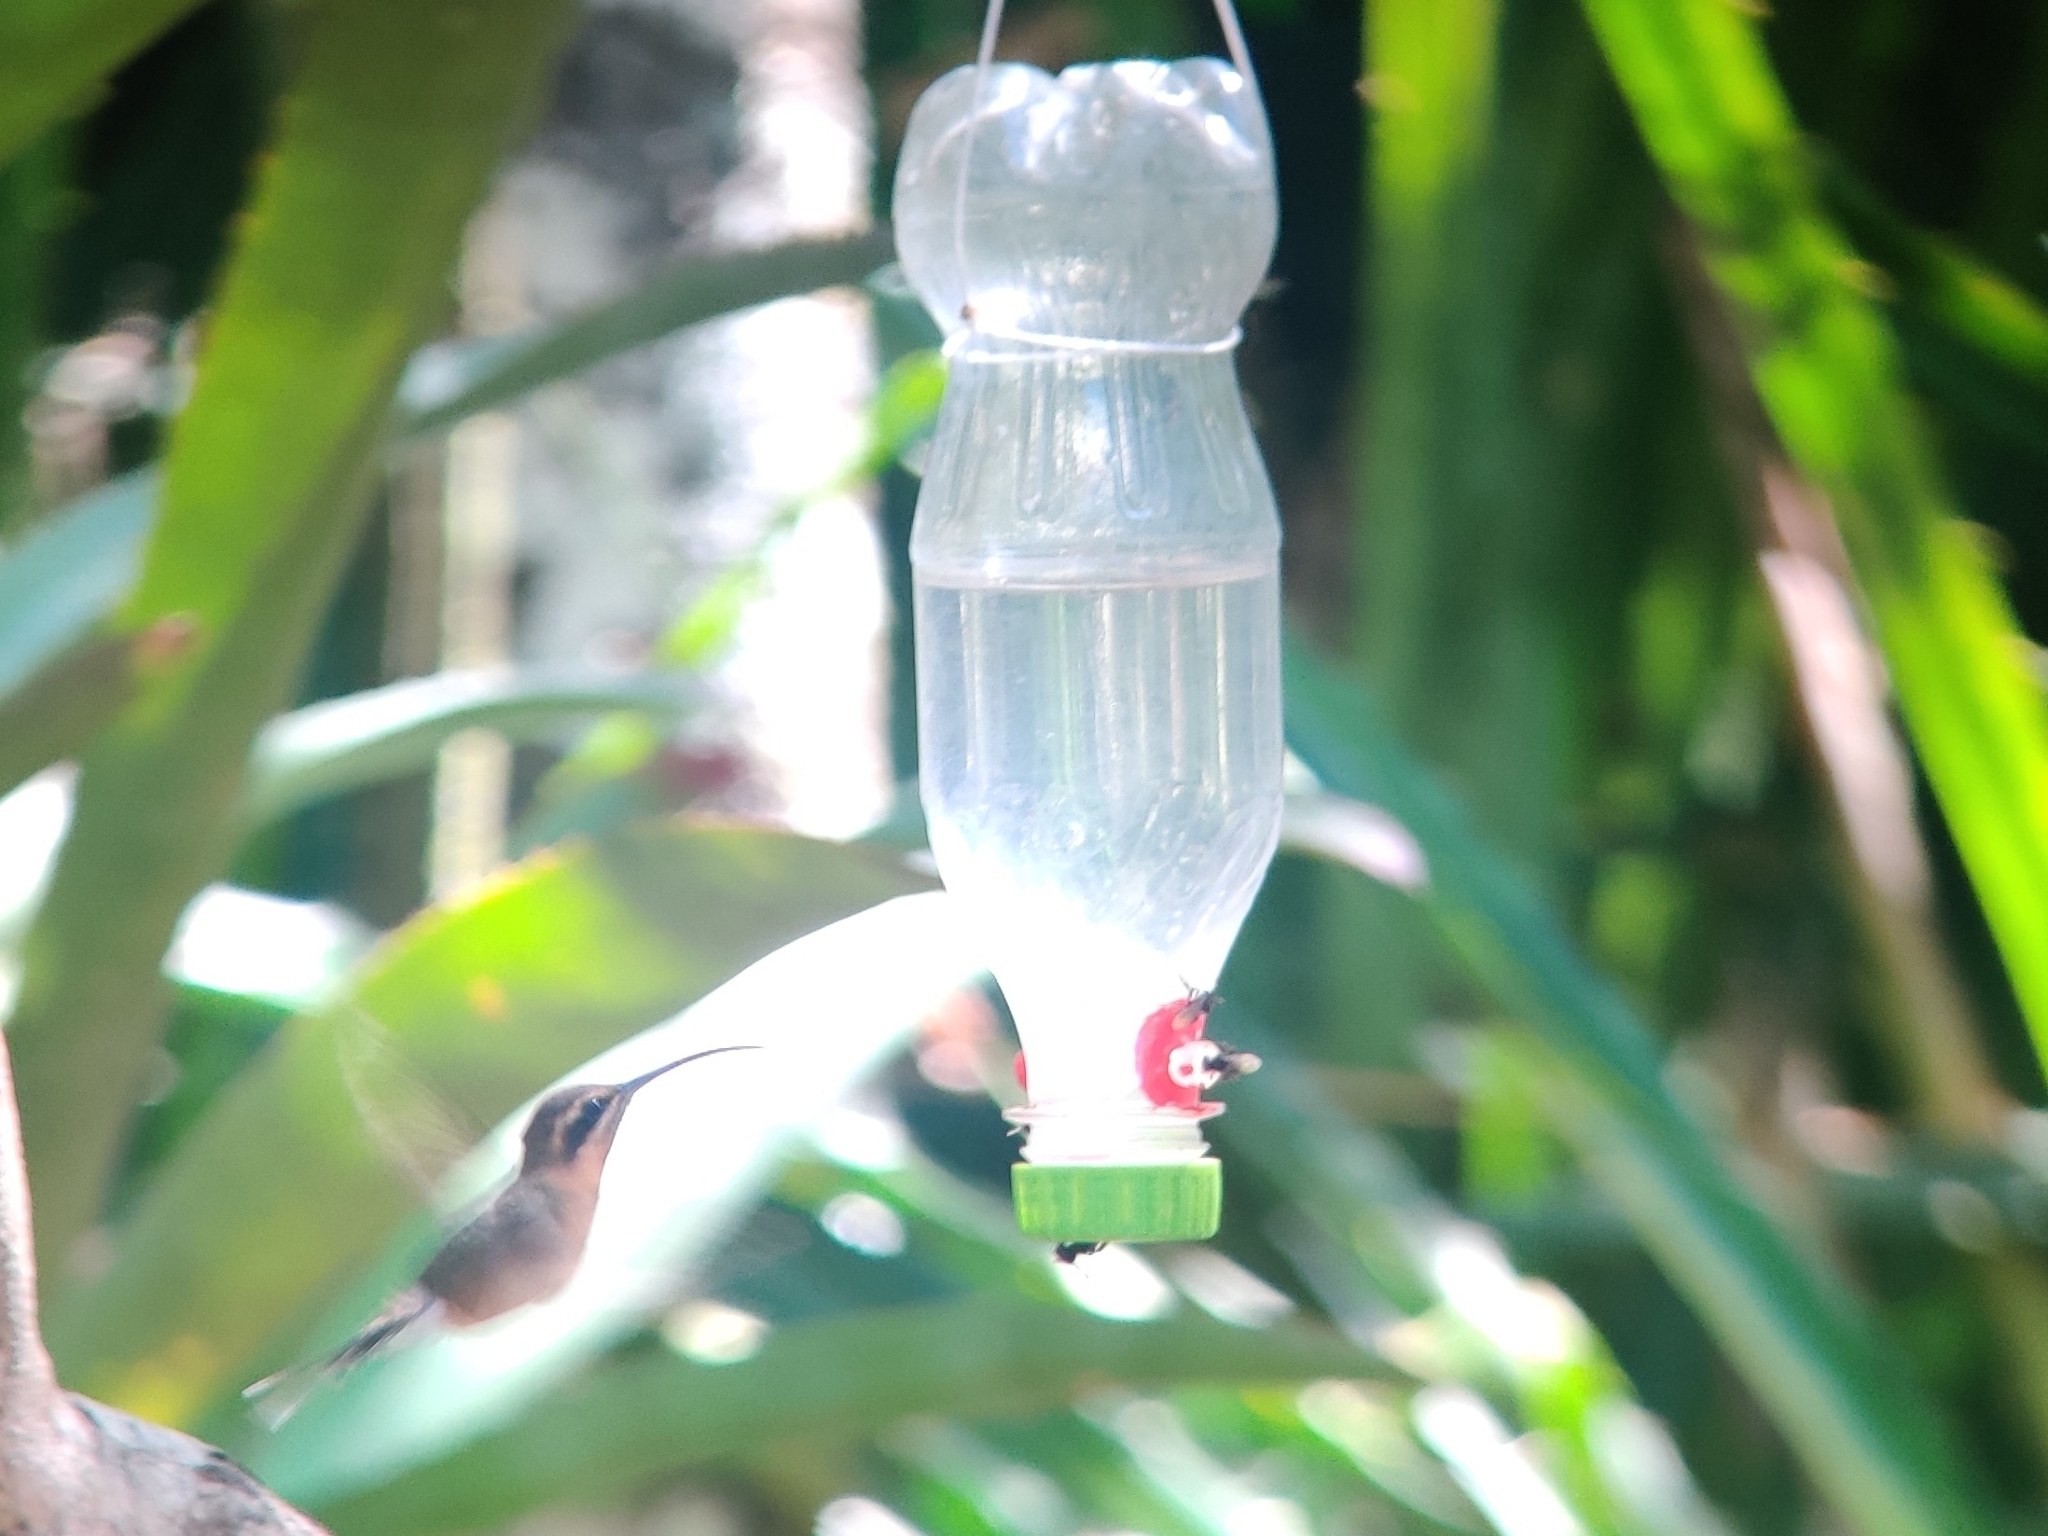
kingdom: Animalia
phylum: Chordata
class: Aves
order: Apodiformes
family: Trochilidae
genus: Phaethornis
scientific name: Phaethornis idaliae
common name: Minute hermit
